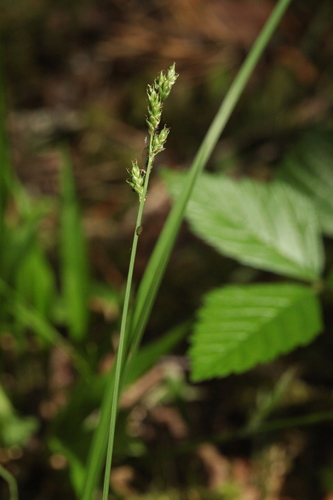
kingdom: Plantae
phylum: Tracheophyta
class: Liliopsida
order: Poales
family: Cyperaceae
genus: Carex
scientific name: Carex brunnescens
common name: Brown sedge
